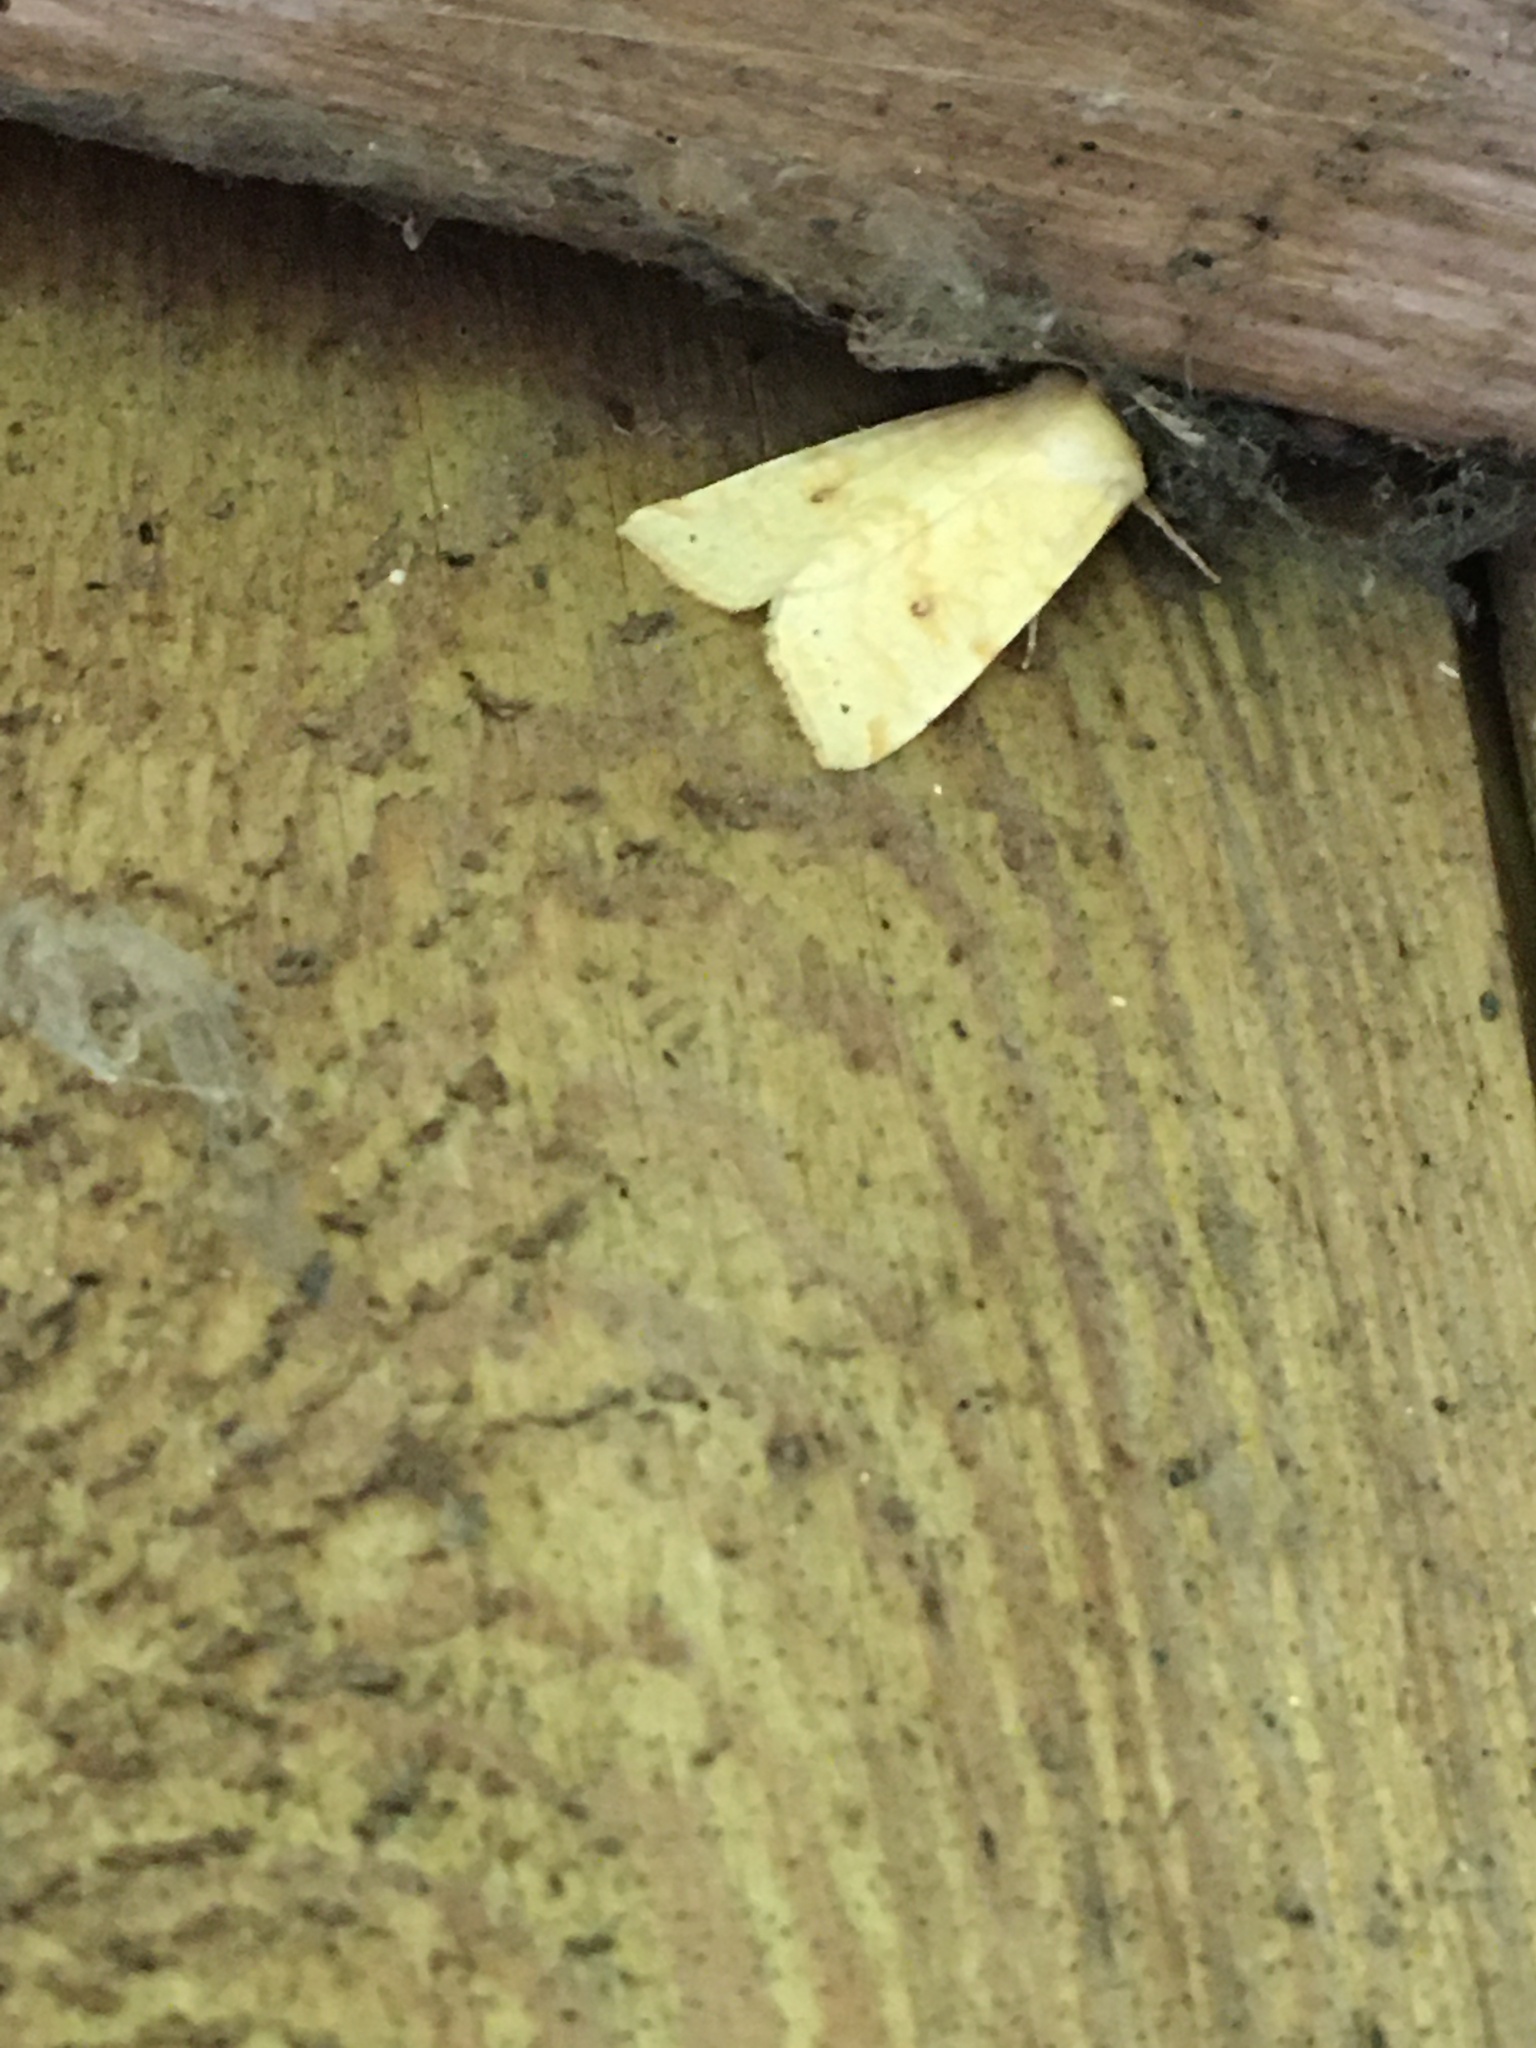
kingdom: Animalia
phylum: Arthropoda
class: Insecta
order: Lepidoptera
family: Noctuidae
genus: Xanthia
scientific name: Xanthia icteritia
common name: The sallow
